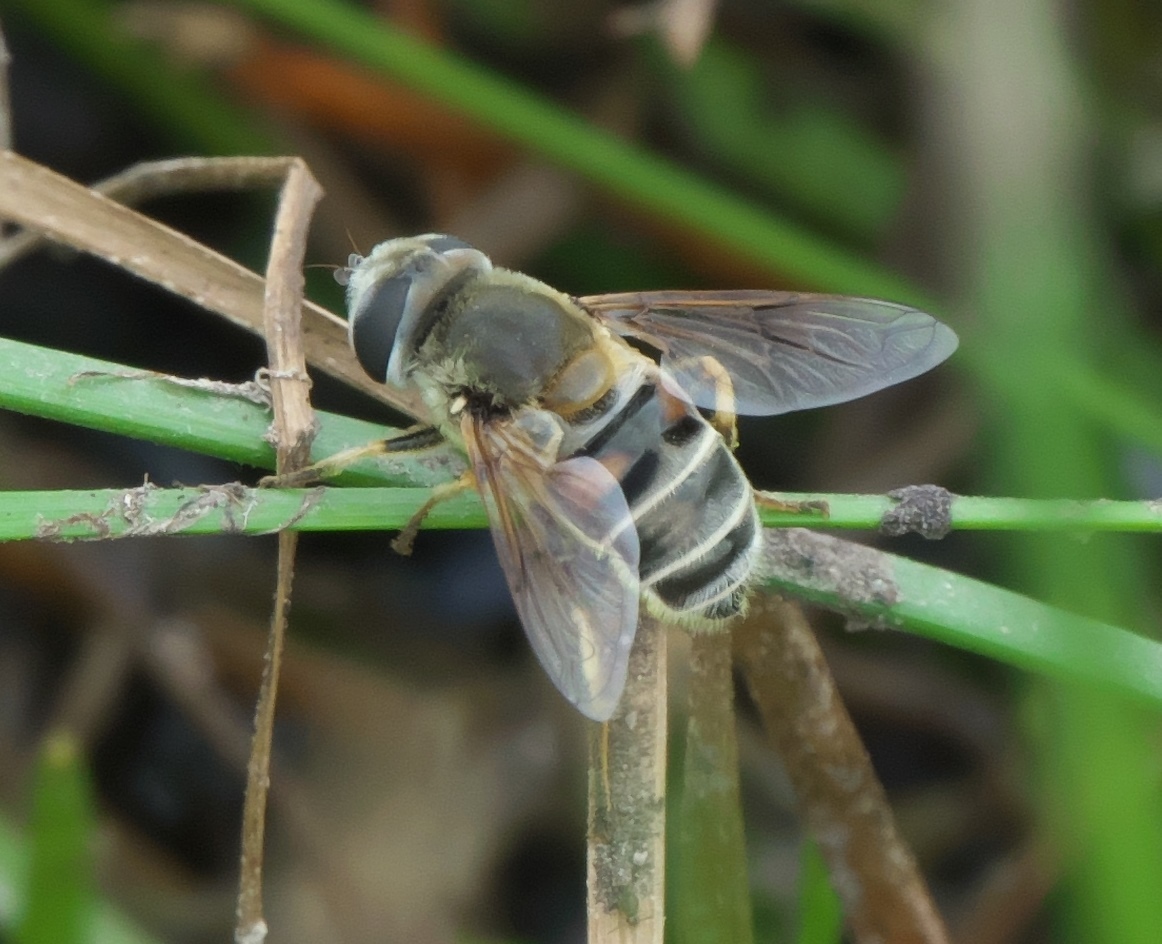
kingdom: Animalia
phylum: Arthropoda
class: Insecta
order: Diptera
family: Syrphidae
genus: Eristalis
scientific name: Eristalis stipator
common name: Yellow-shouldered drone fly
